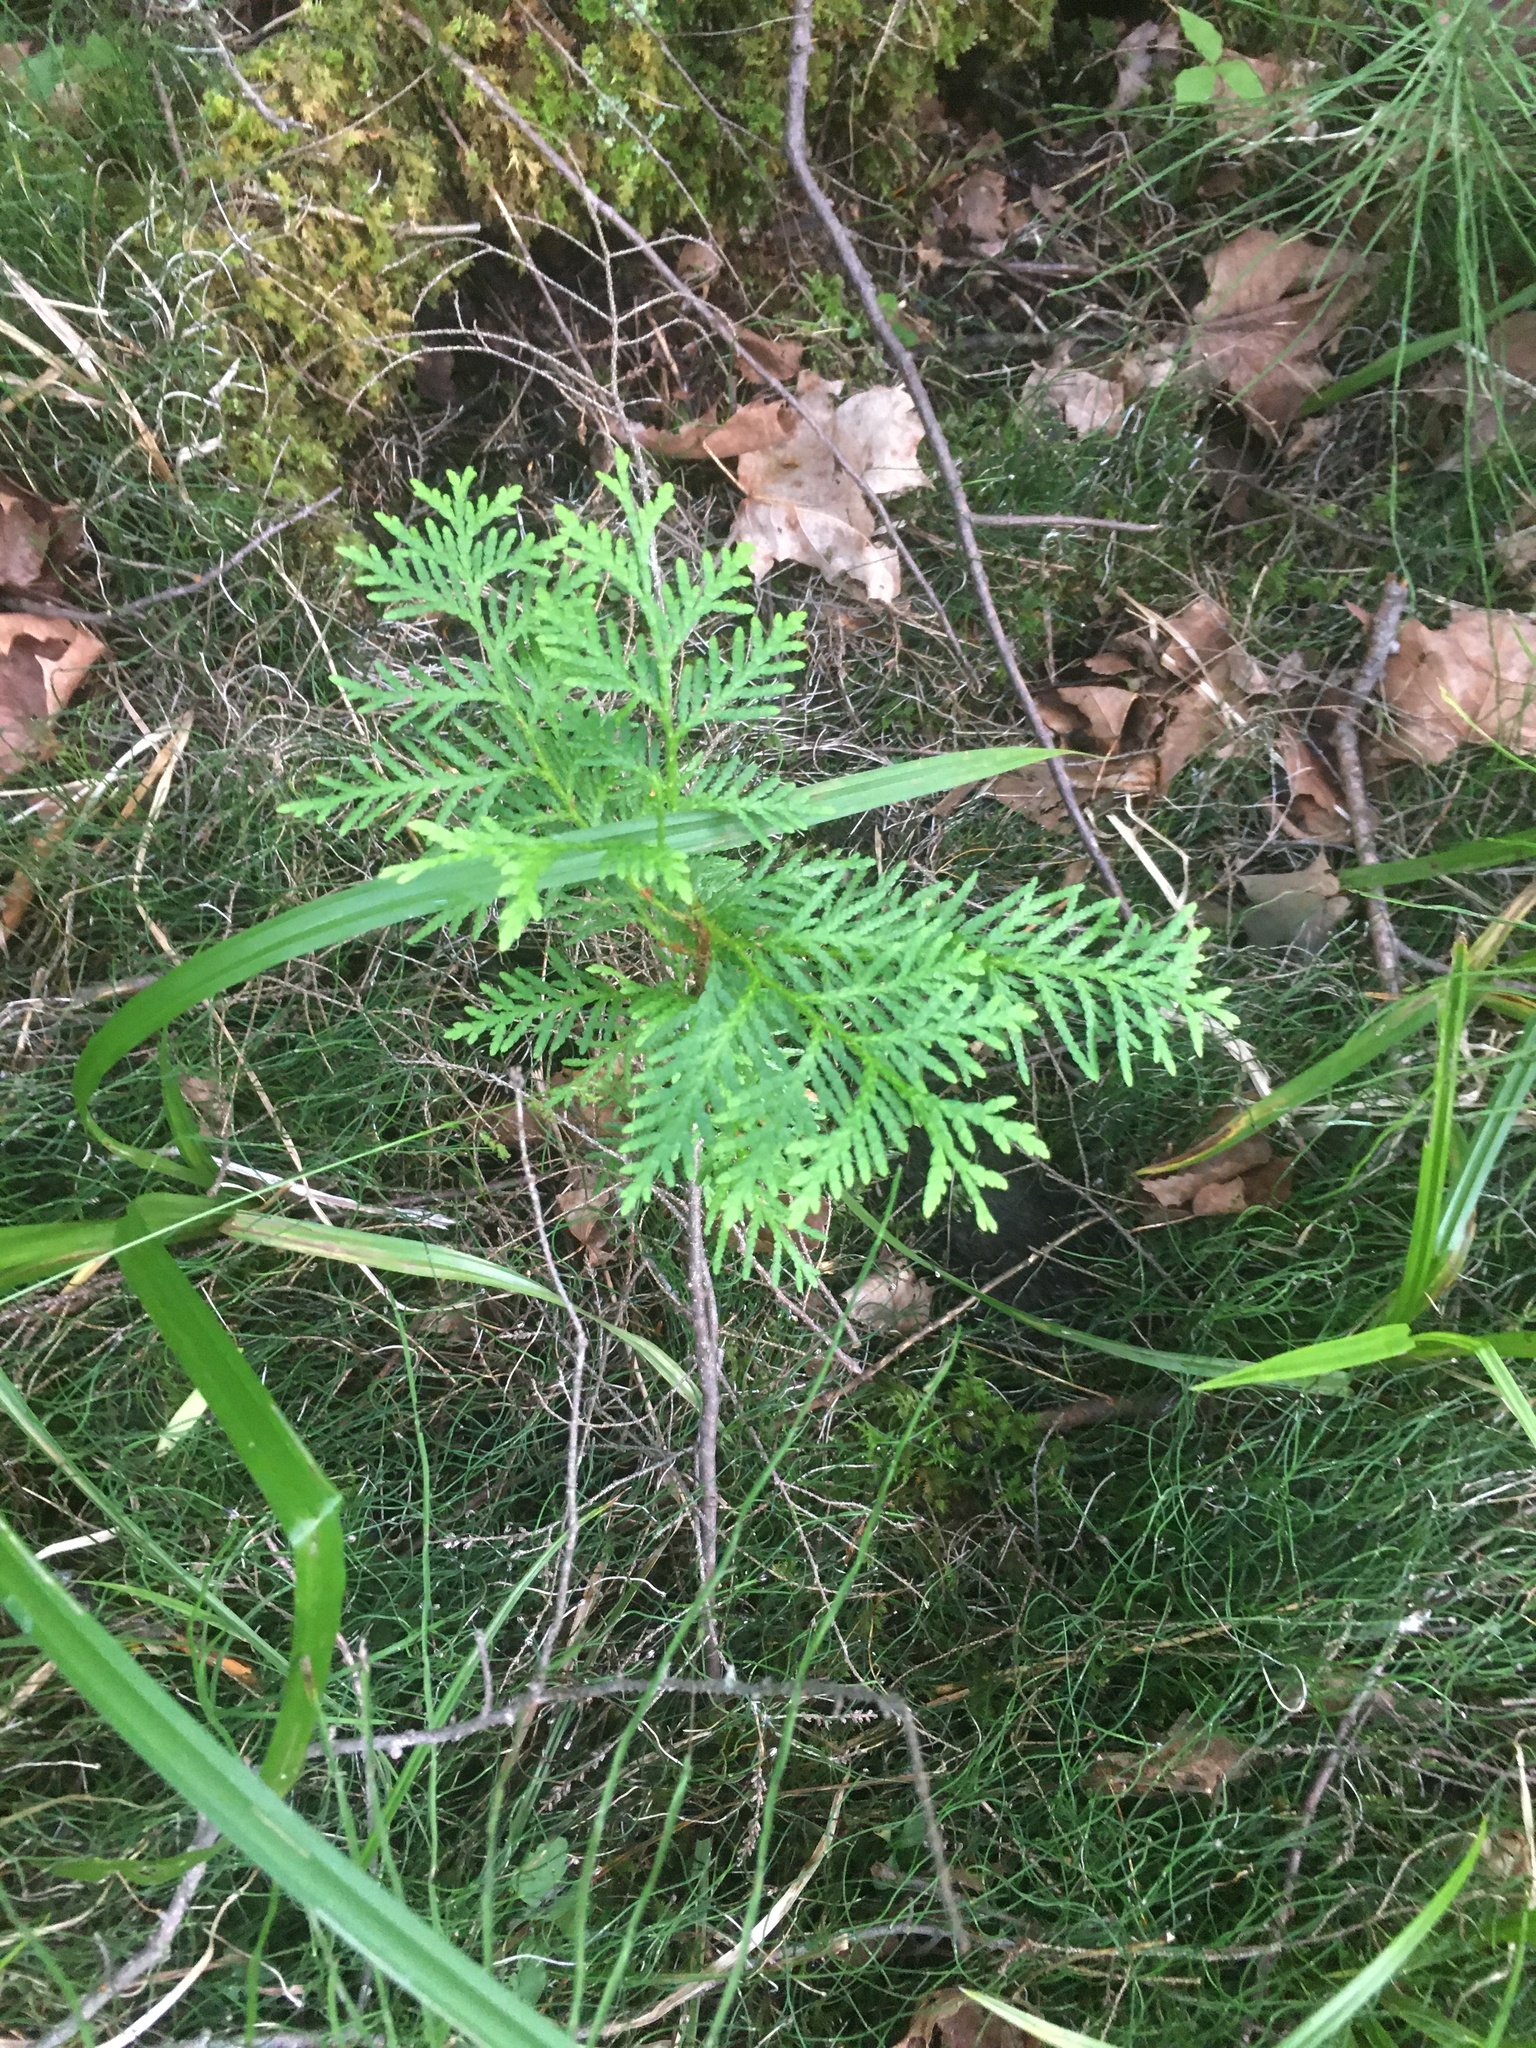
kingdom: Plantae
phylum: Tracheophyta
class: Pinopsida
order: Pinales
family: Cupressaceae
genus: Thuja
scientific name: Thuja occidentalis
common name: Northern white-cedar
